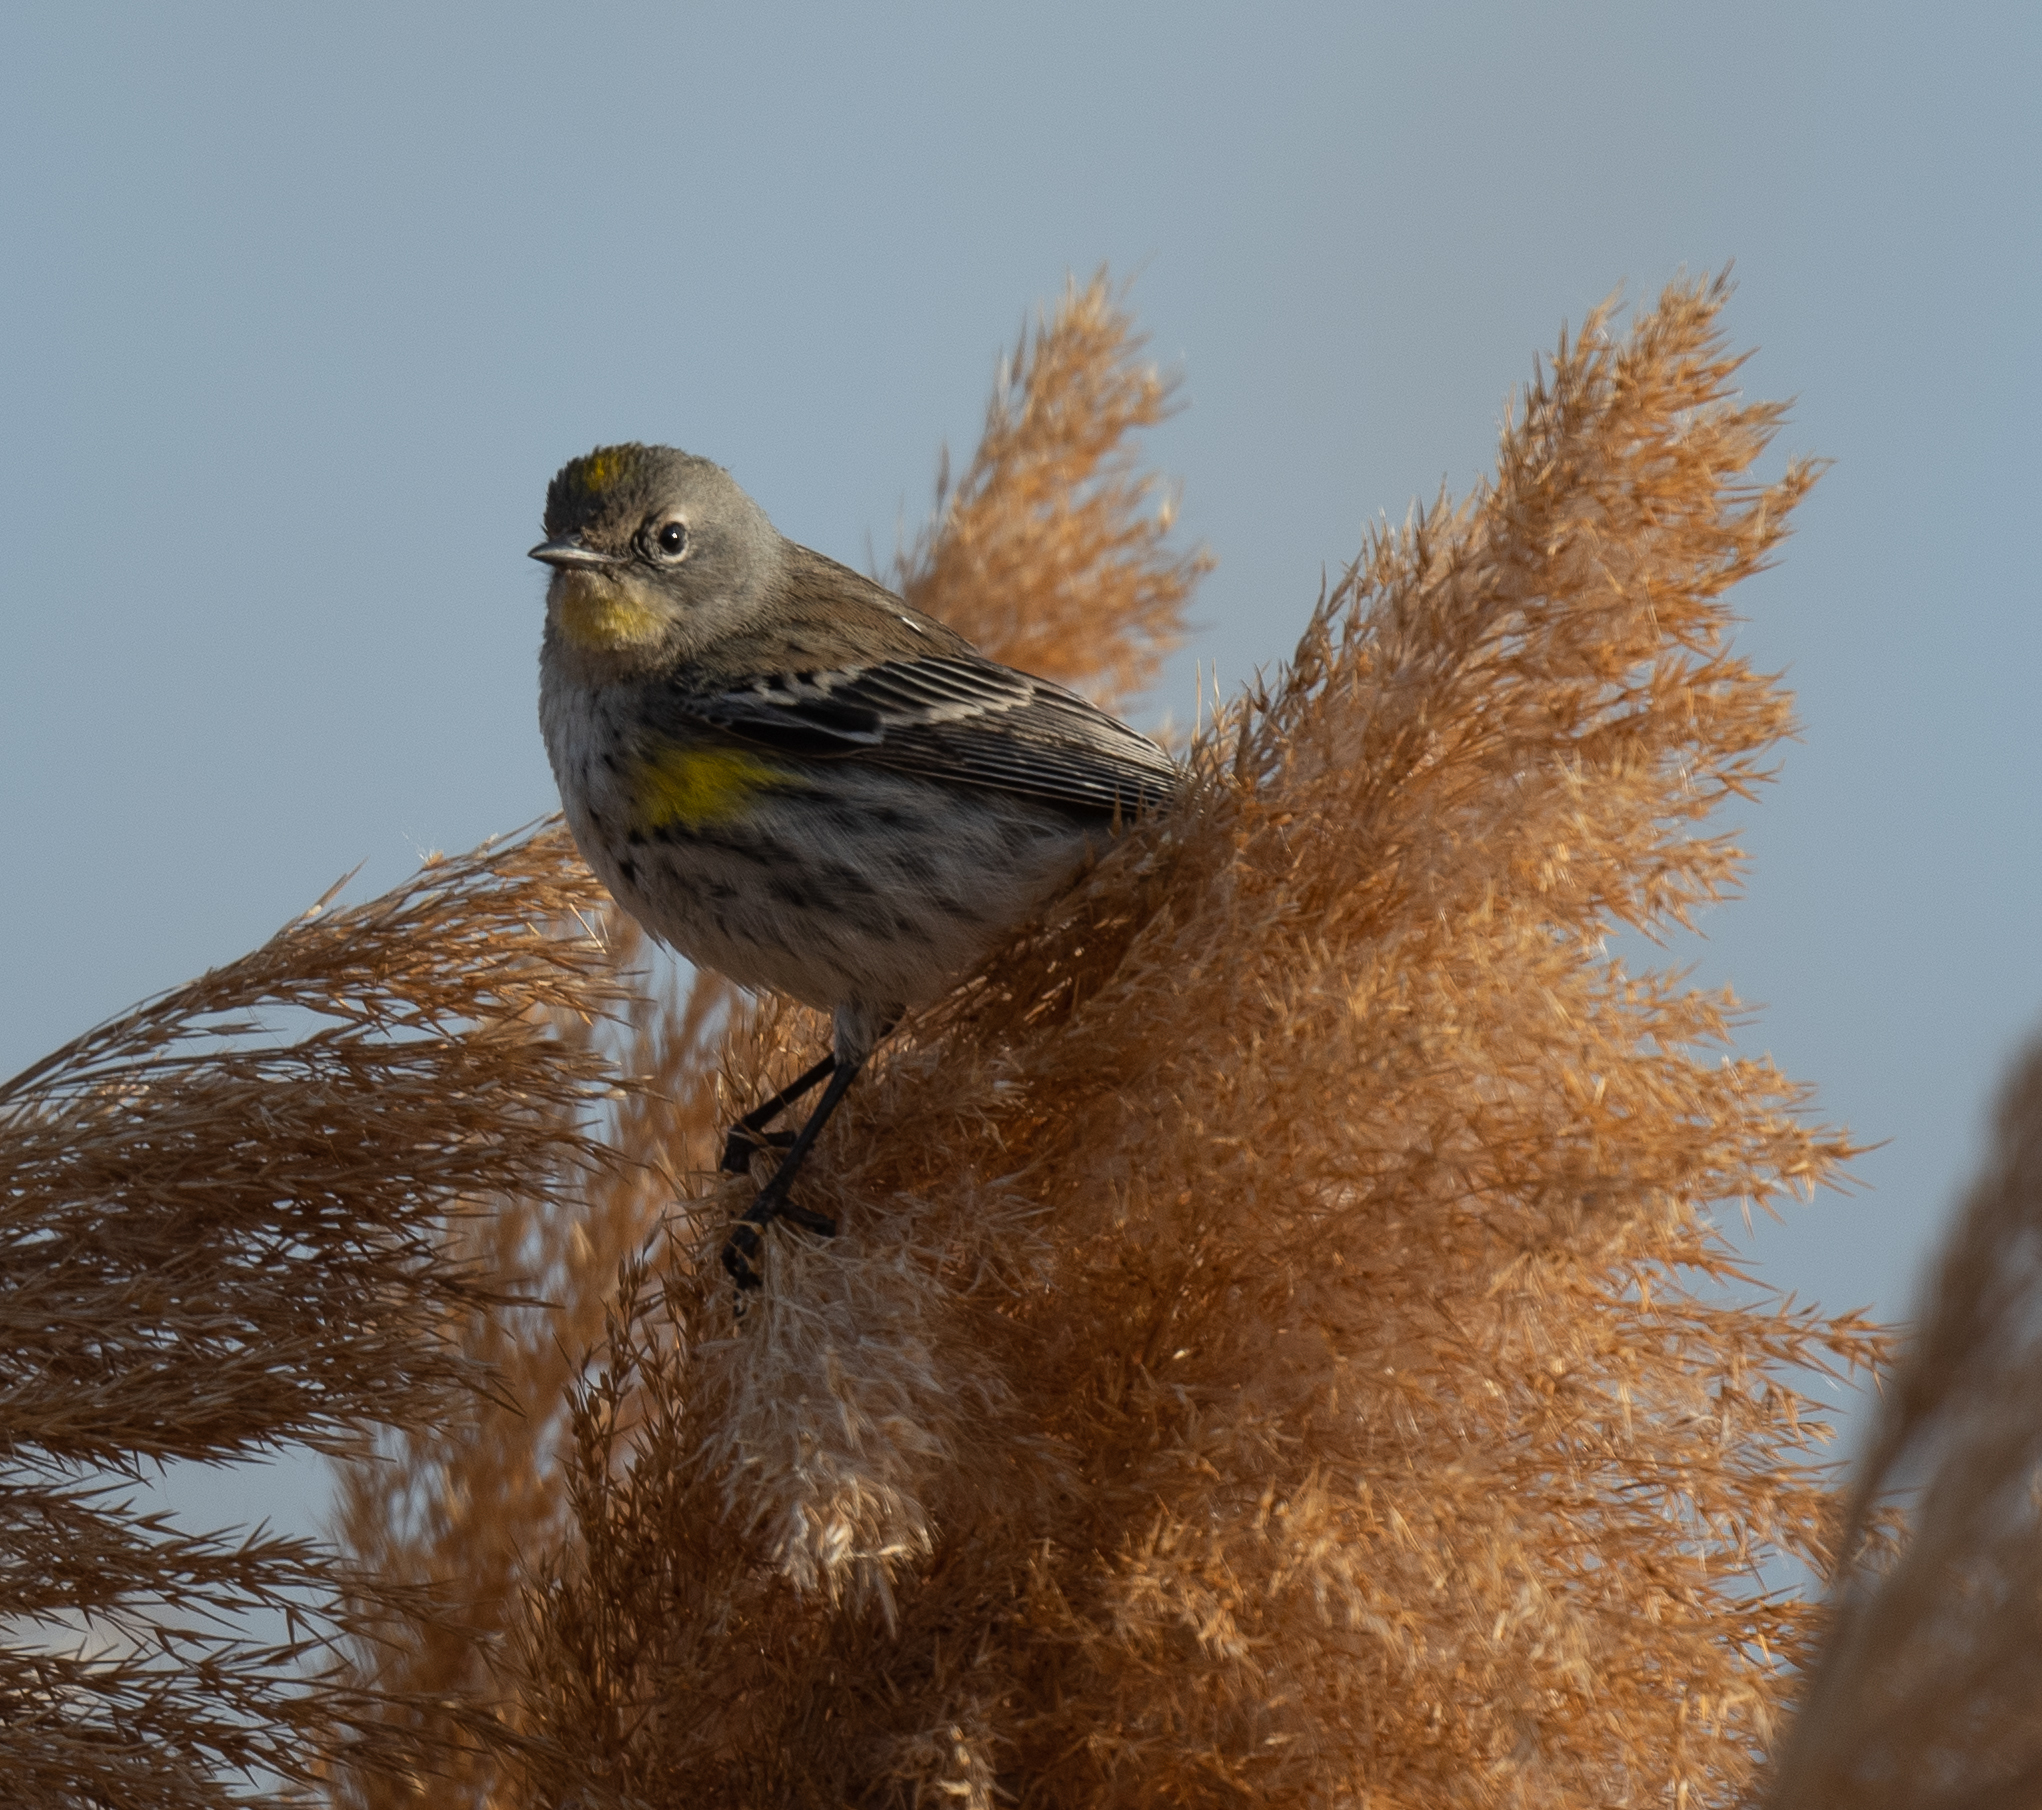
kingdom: Animalia
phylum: Chordata
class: Aves
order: Passeriformes
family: Parulidae
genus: Setophaga
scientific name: Setophaga coronata
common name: Myrtle warbler
